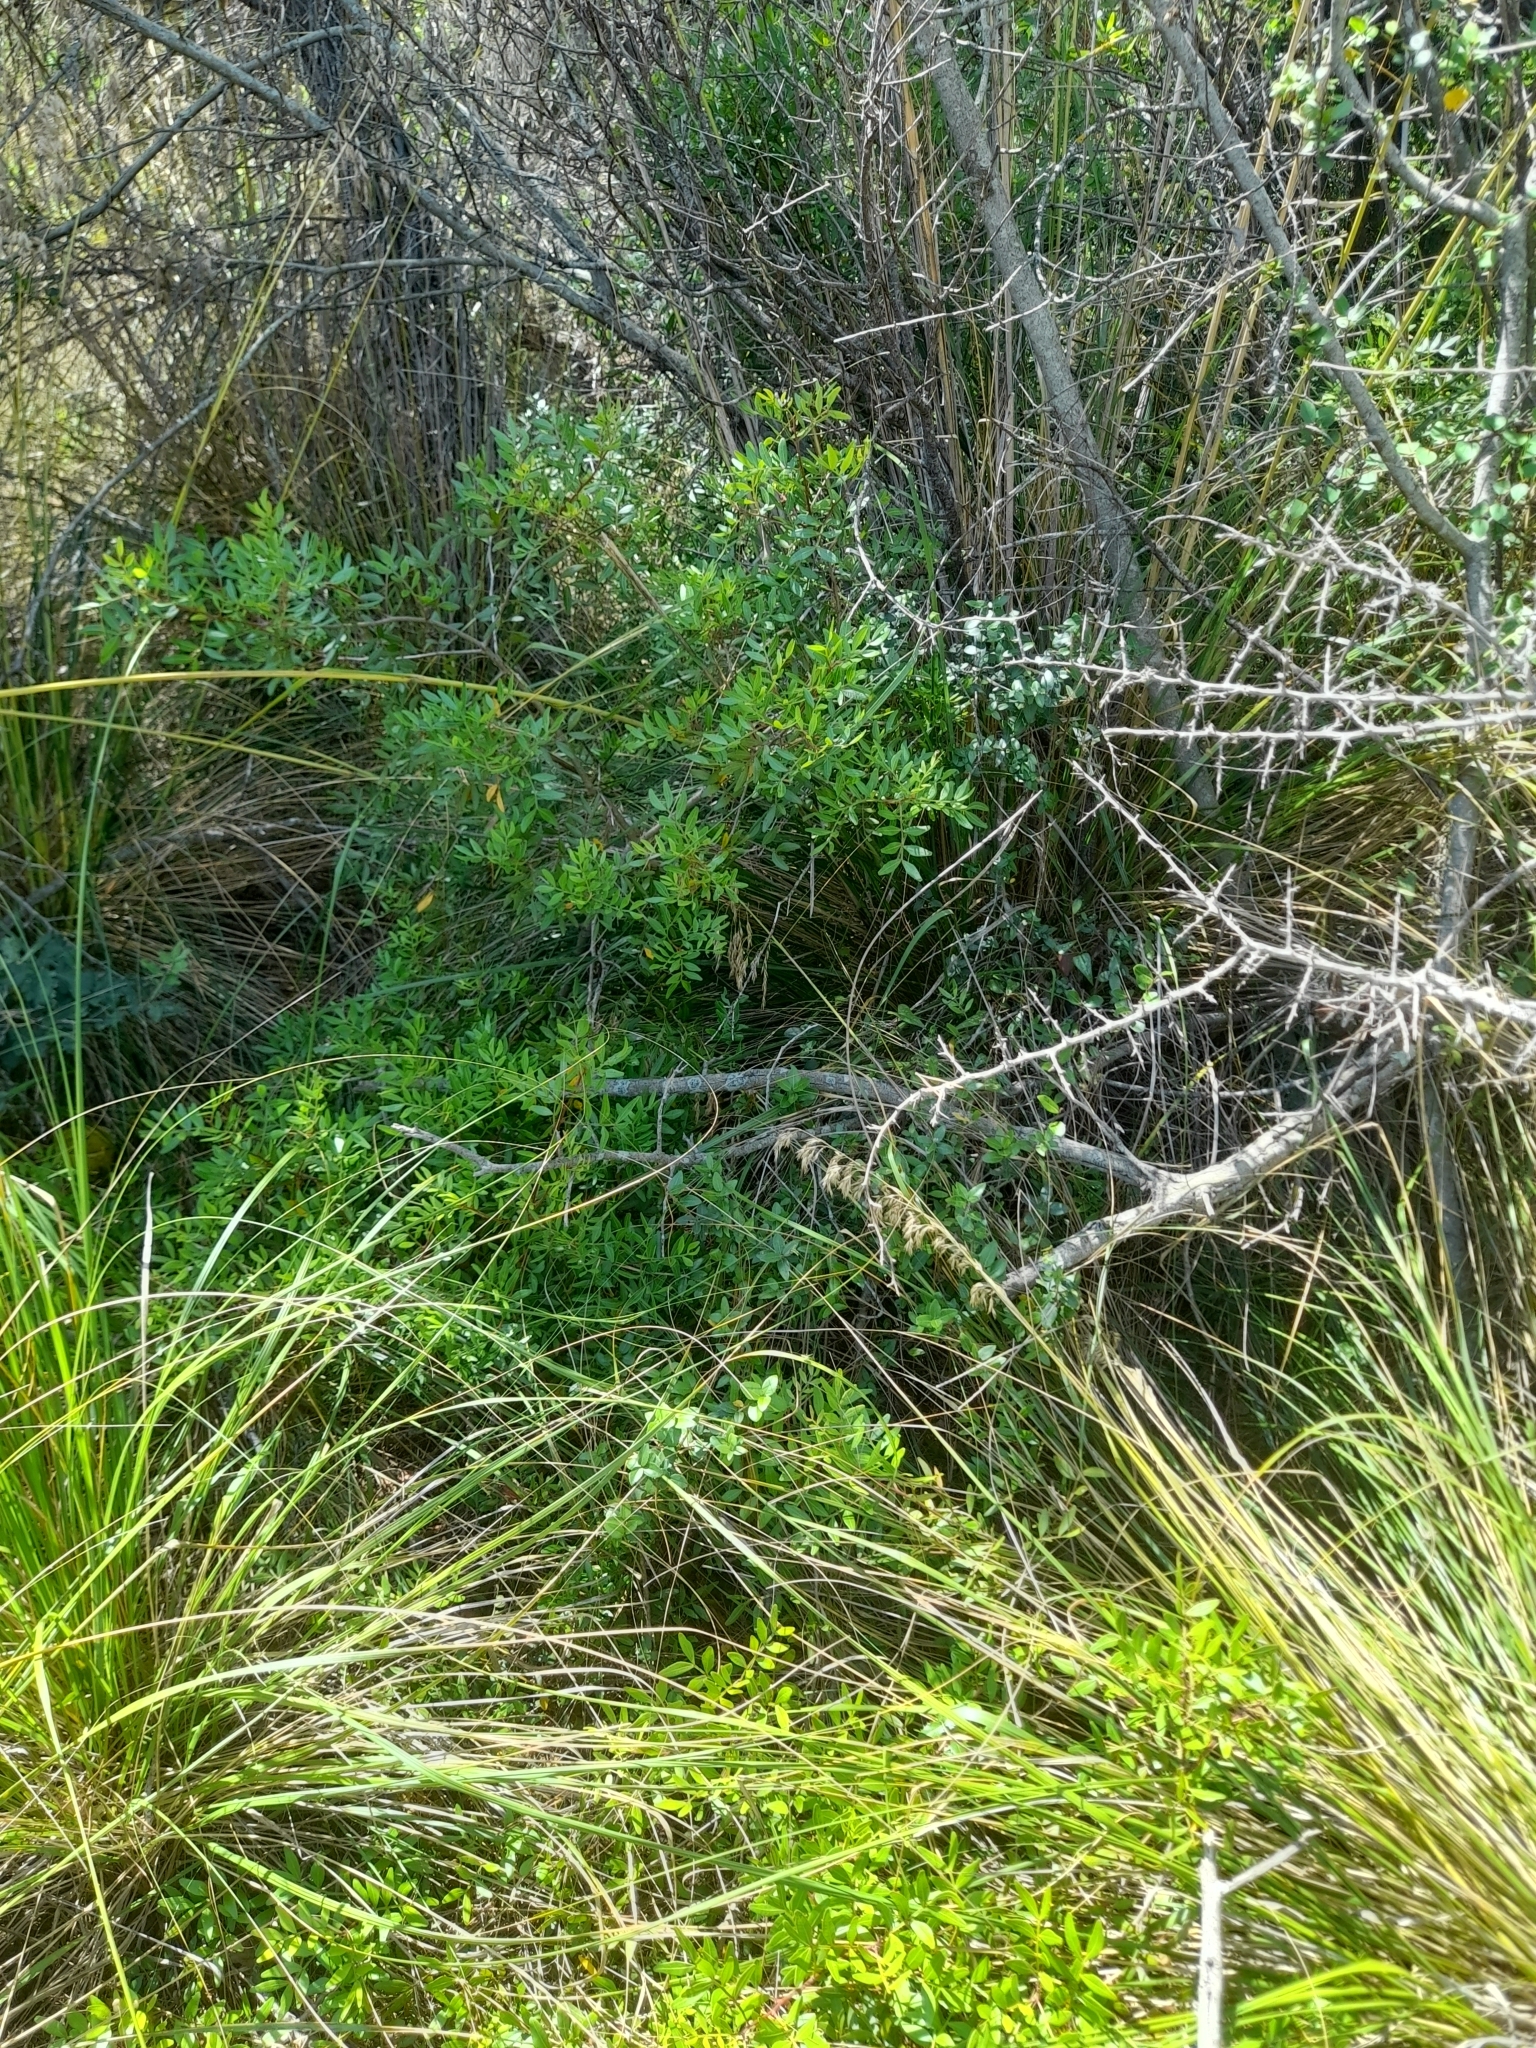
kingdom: Plantae
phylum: Tracheophyta
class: Magnoliopsida
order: Sapindales
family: Anacardiaceae
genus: Pistacia
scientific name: Pistacia lentiscus
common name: Lentisk
